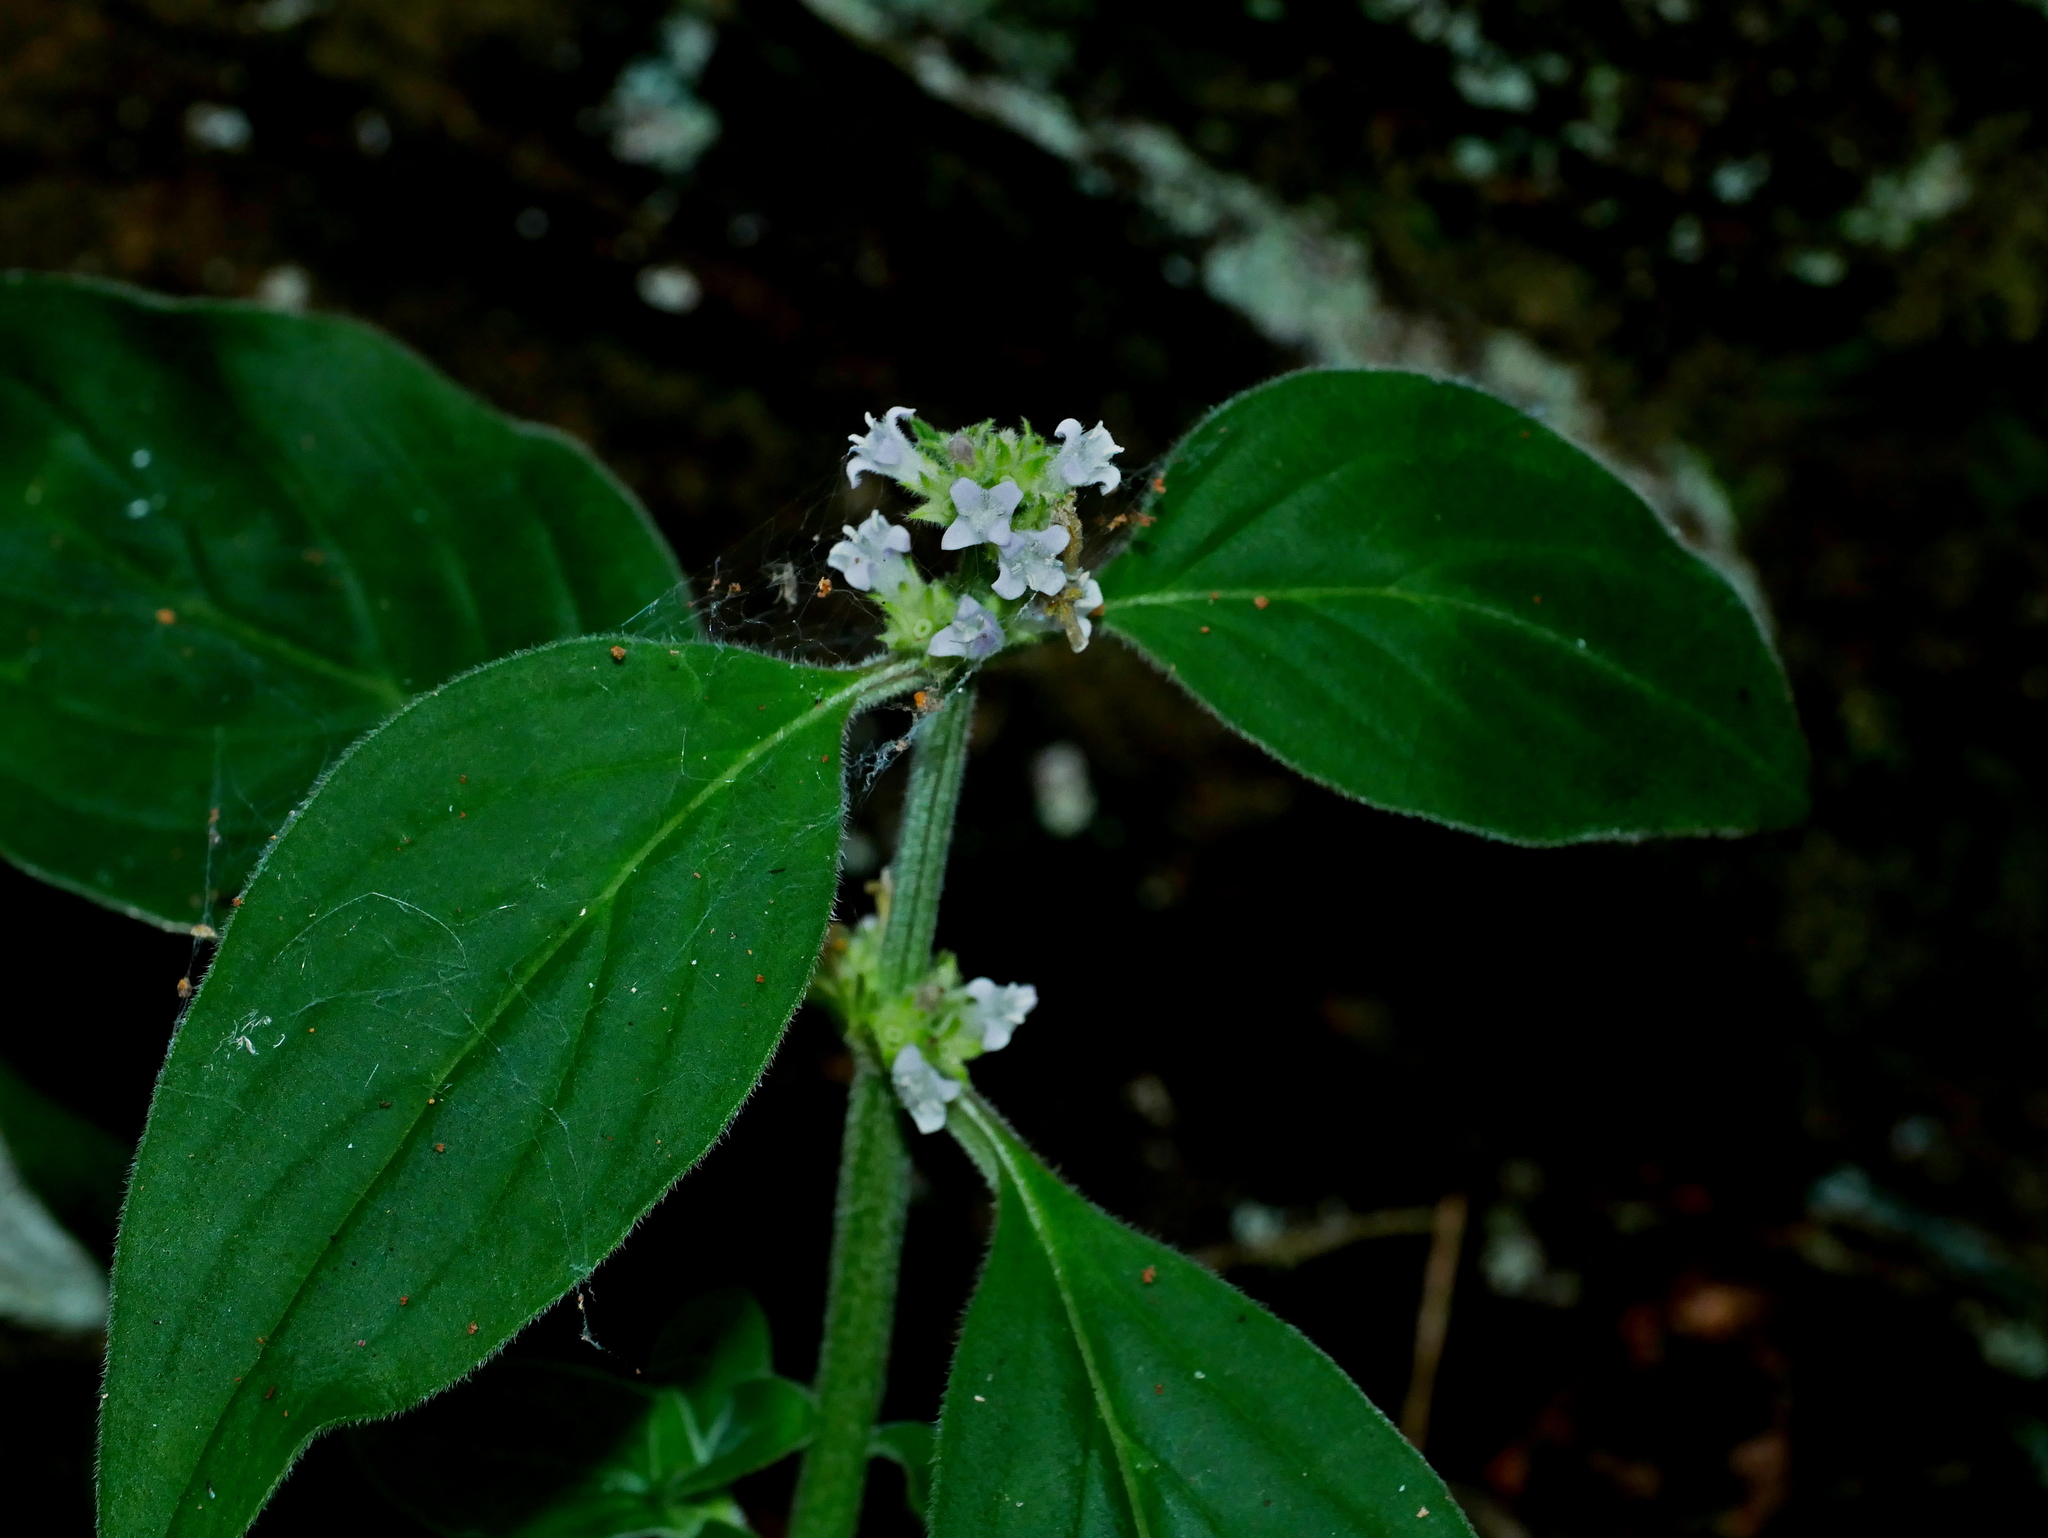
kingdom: Plantae
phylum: Tracheophyta
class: Magnoliopsida
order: Gentianales
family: Rubiaceae
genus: Hedyotis
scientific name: Hedyotis uncinella
